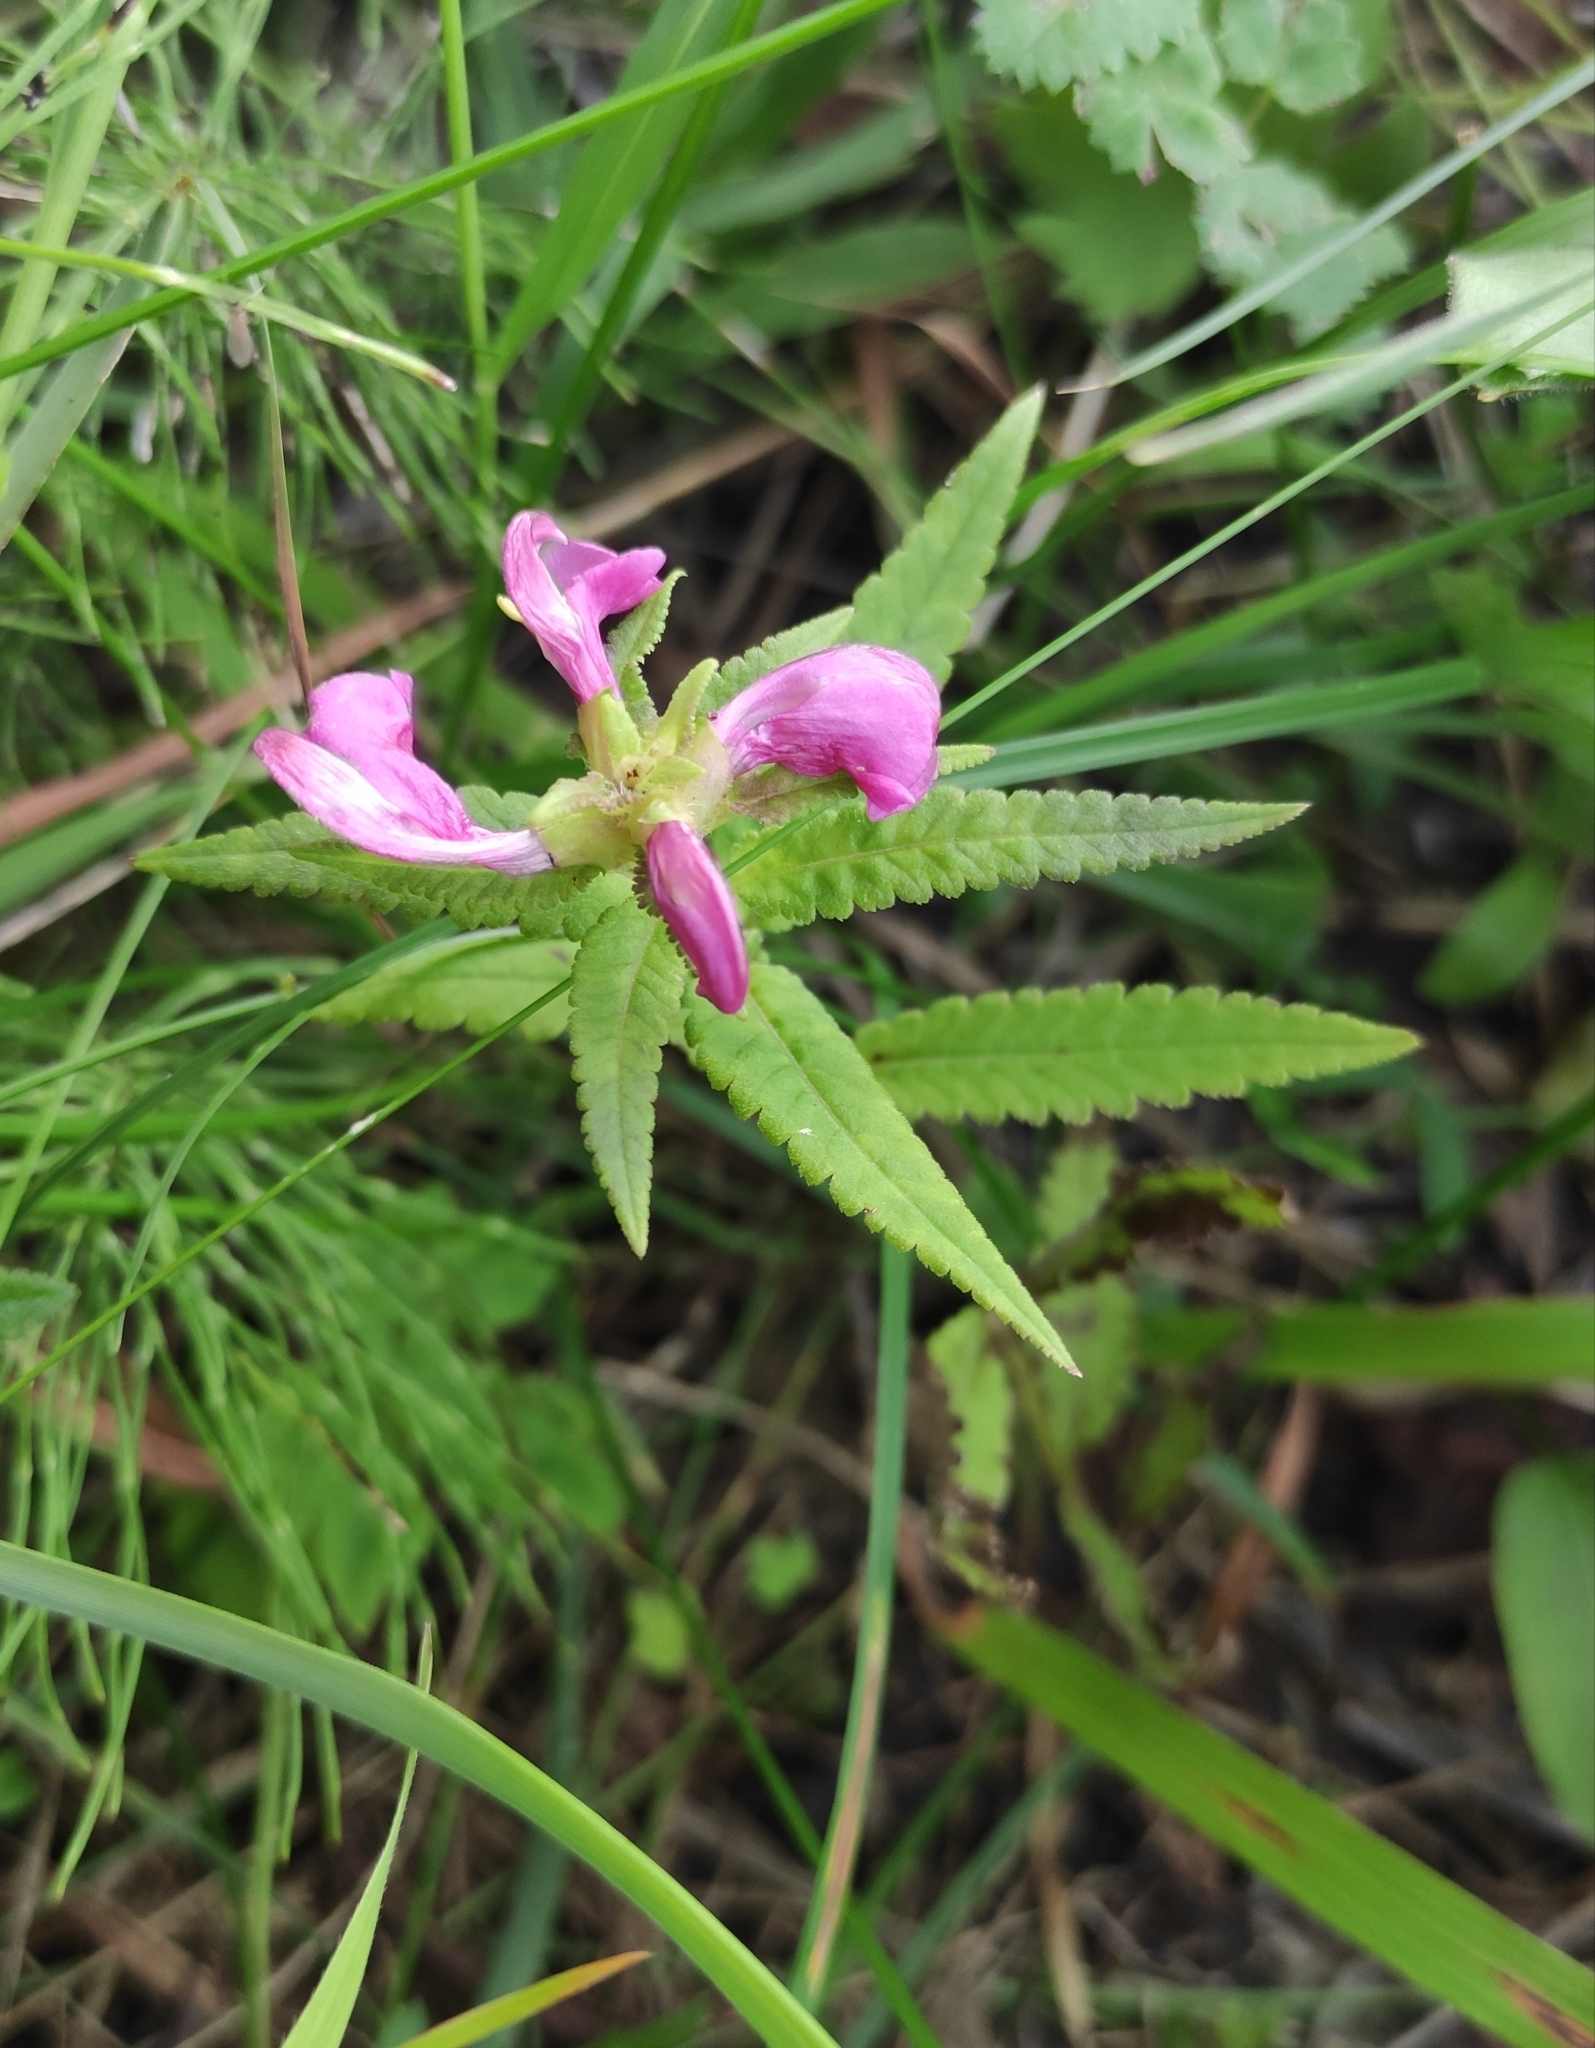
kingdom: Plantae
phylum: Tracheophyta
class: Magnoliopsida
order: Lamiales
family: Orobanchaceae
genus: Pedicularis
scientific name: Pedicularis resupinata
